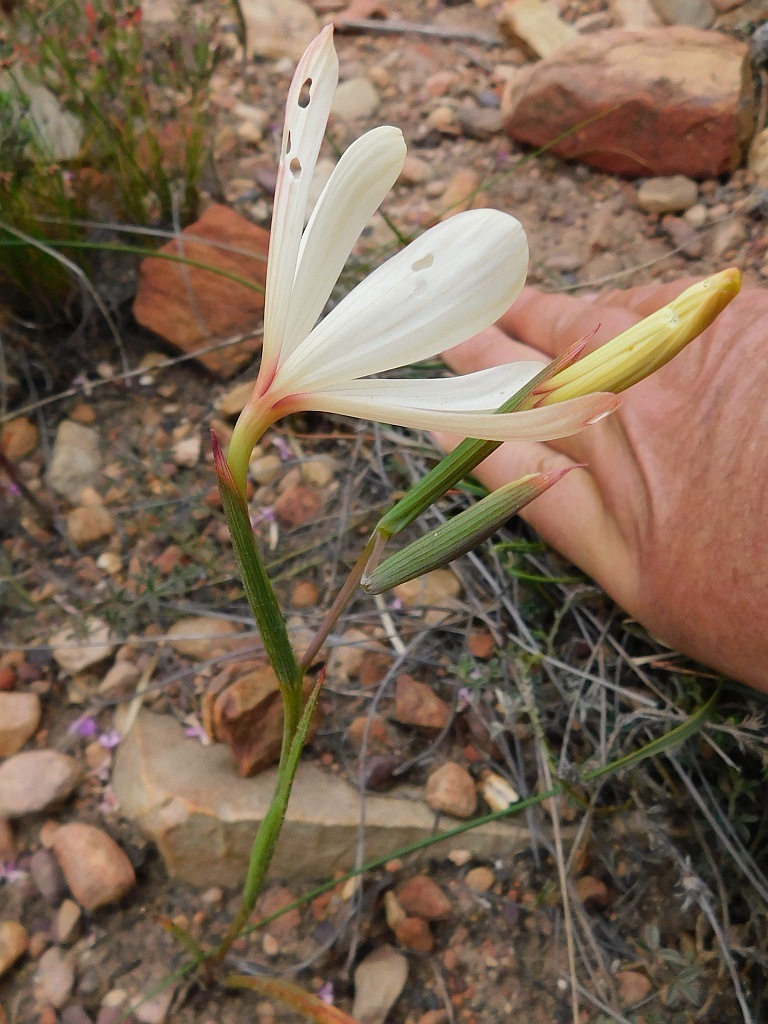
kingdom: Plantae
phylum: Tracheophyta
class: Liliopsida
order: Asparagales
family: Iridaceae
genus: Geissorhiza
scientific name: Geissorhiza schinzii
